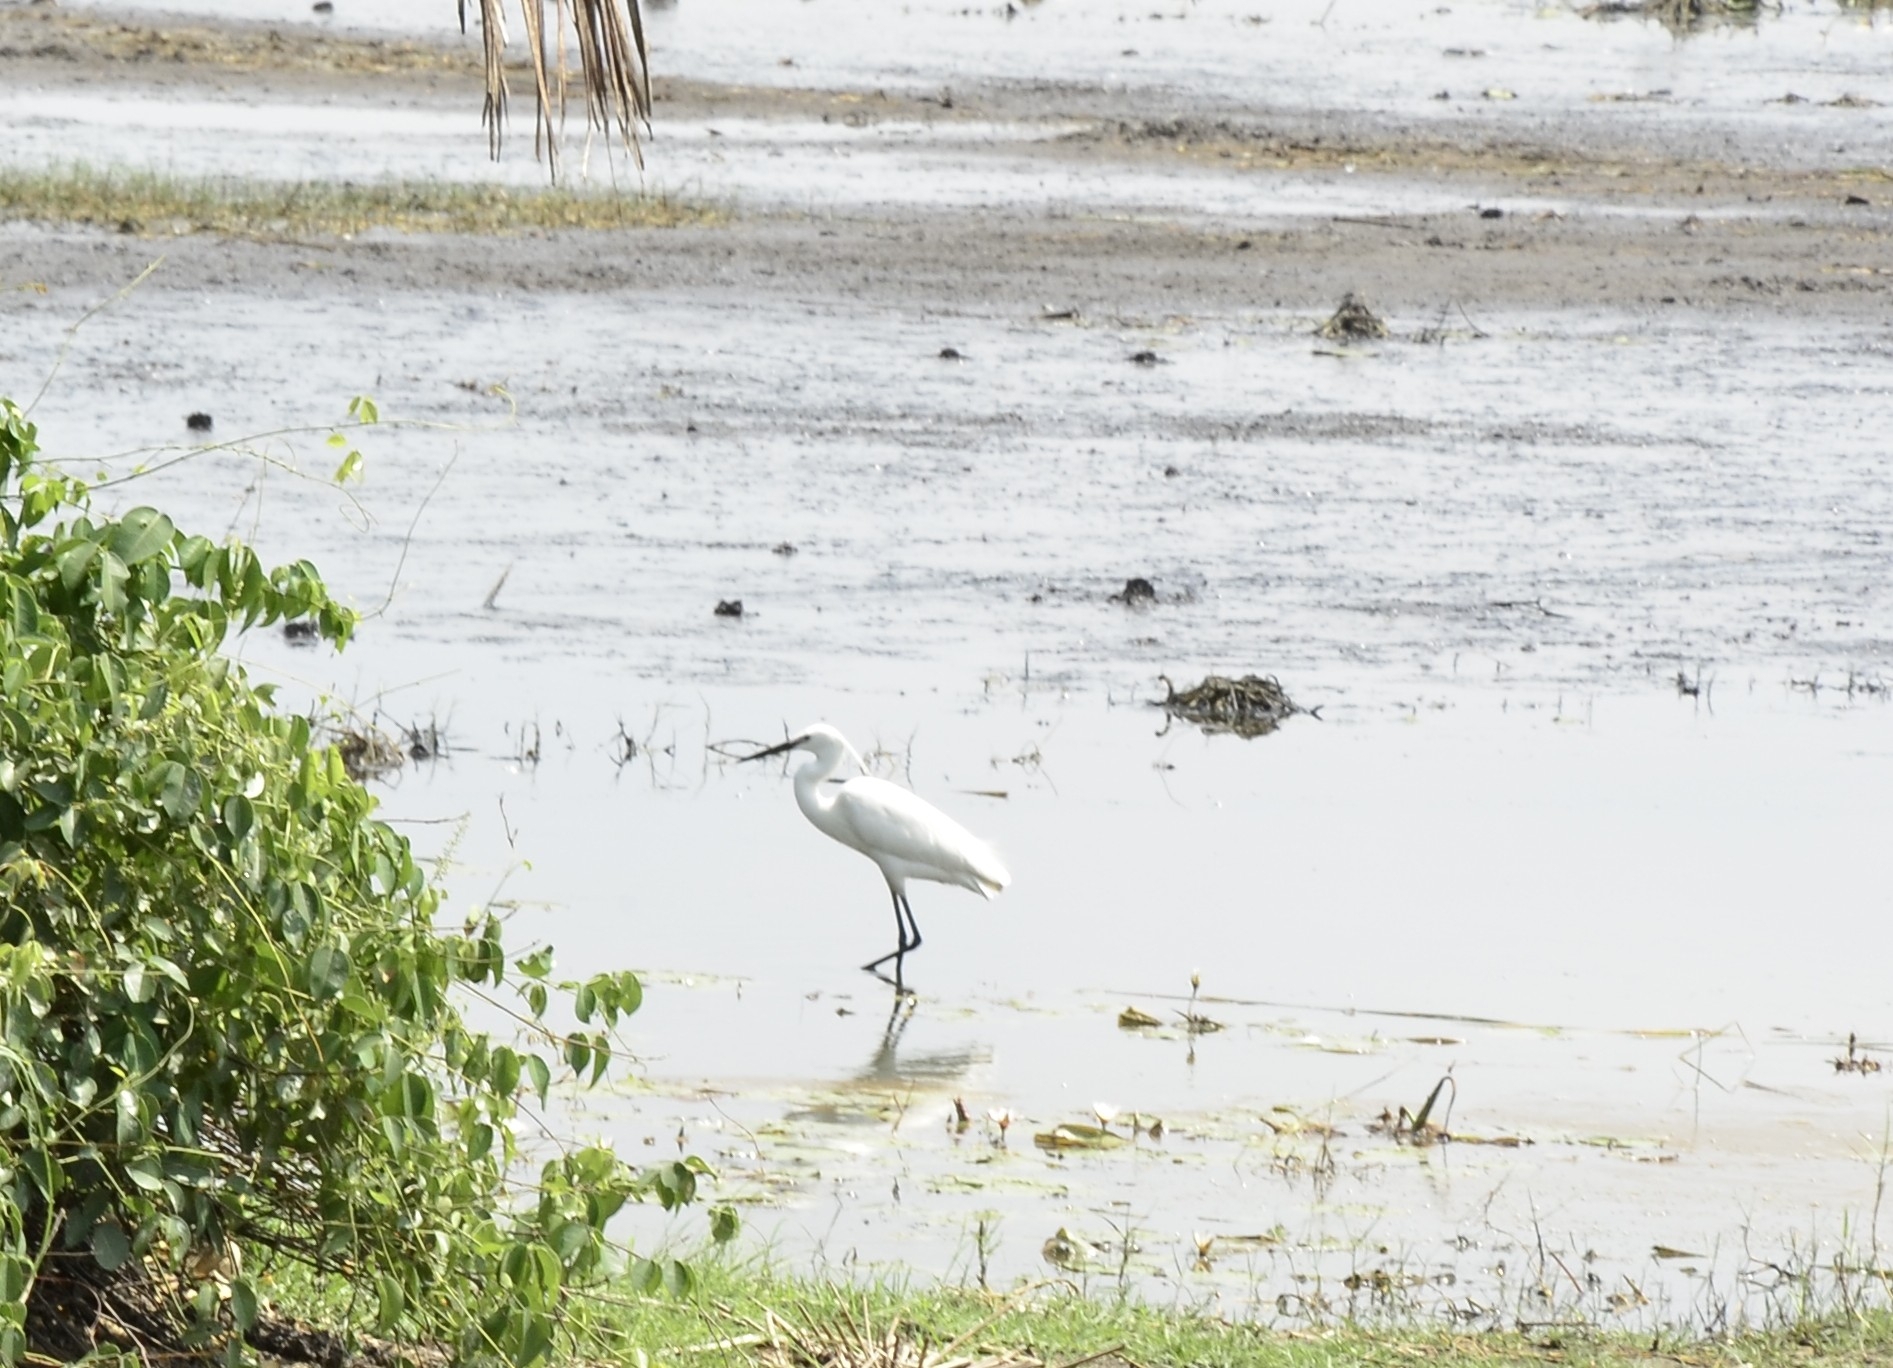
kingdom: Animalia
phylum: Chordata
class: Aves
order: Pelecaniformes
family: Ardeidae
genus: Egretta
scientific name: Egretta garzetta
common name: Little egret
